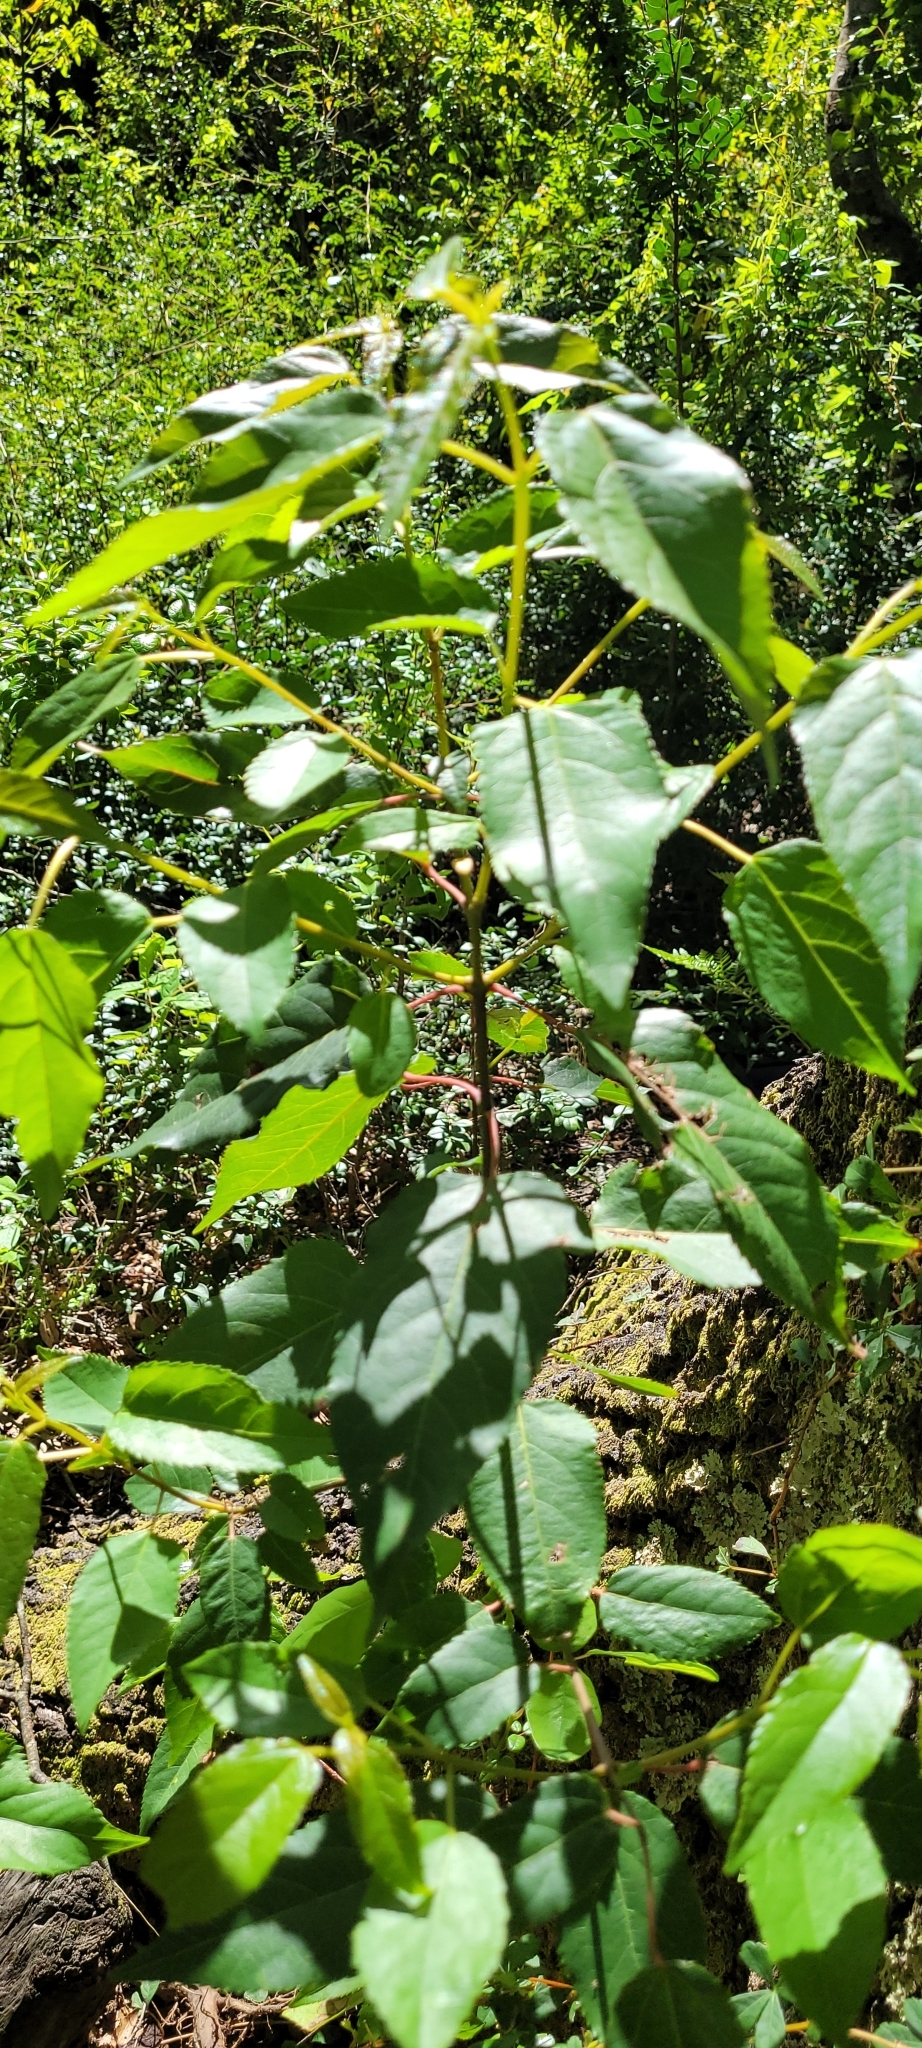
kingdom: Plantae
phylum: Tracheophyta
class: Magnoliopsida
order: Oxalidales
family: Elaeocarpaceae
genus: Aristotelia
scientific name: Aristotelia chilensis
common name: Maquei
